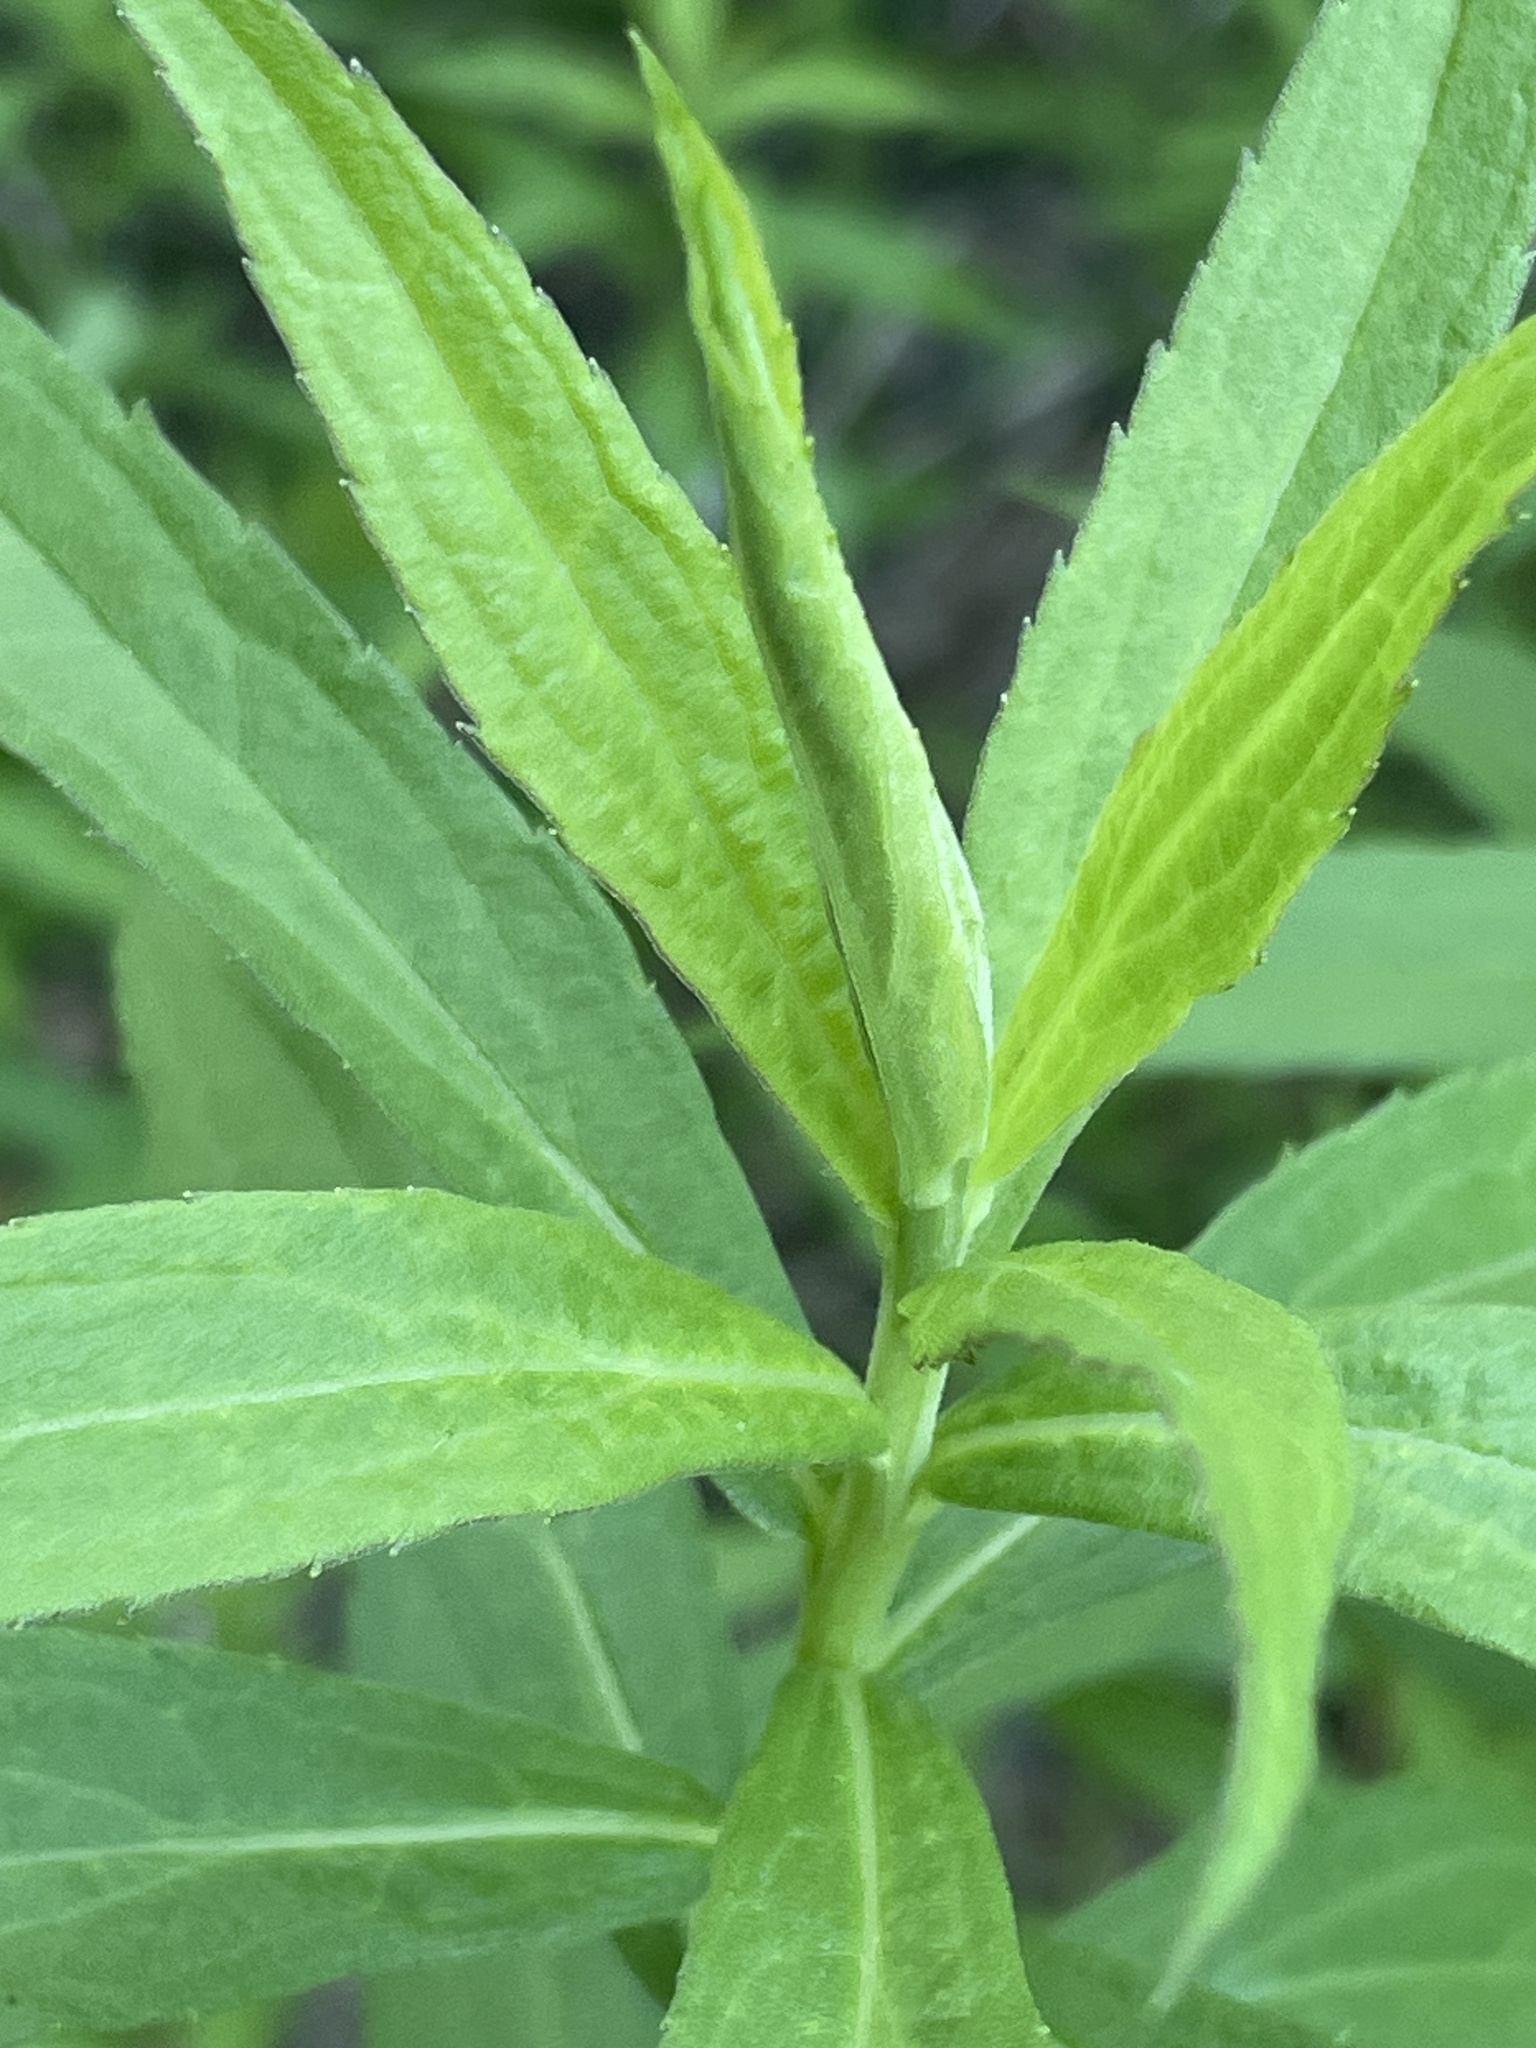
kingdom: Plantae
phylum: Tracheophyta
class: Magnoliopsida
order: Asterales
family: Asteraceae
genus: Solidago
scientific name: Solidago altissima
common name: Late goldenrod
